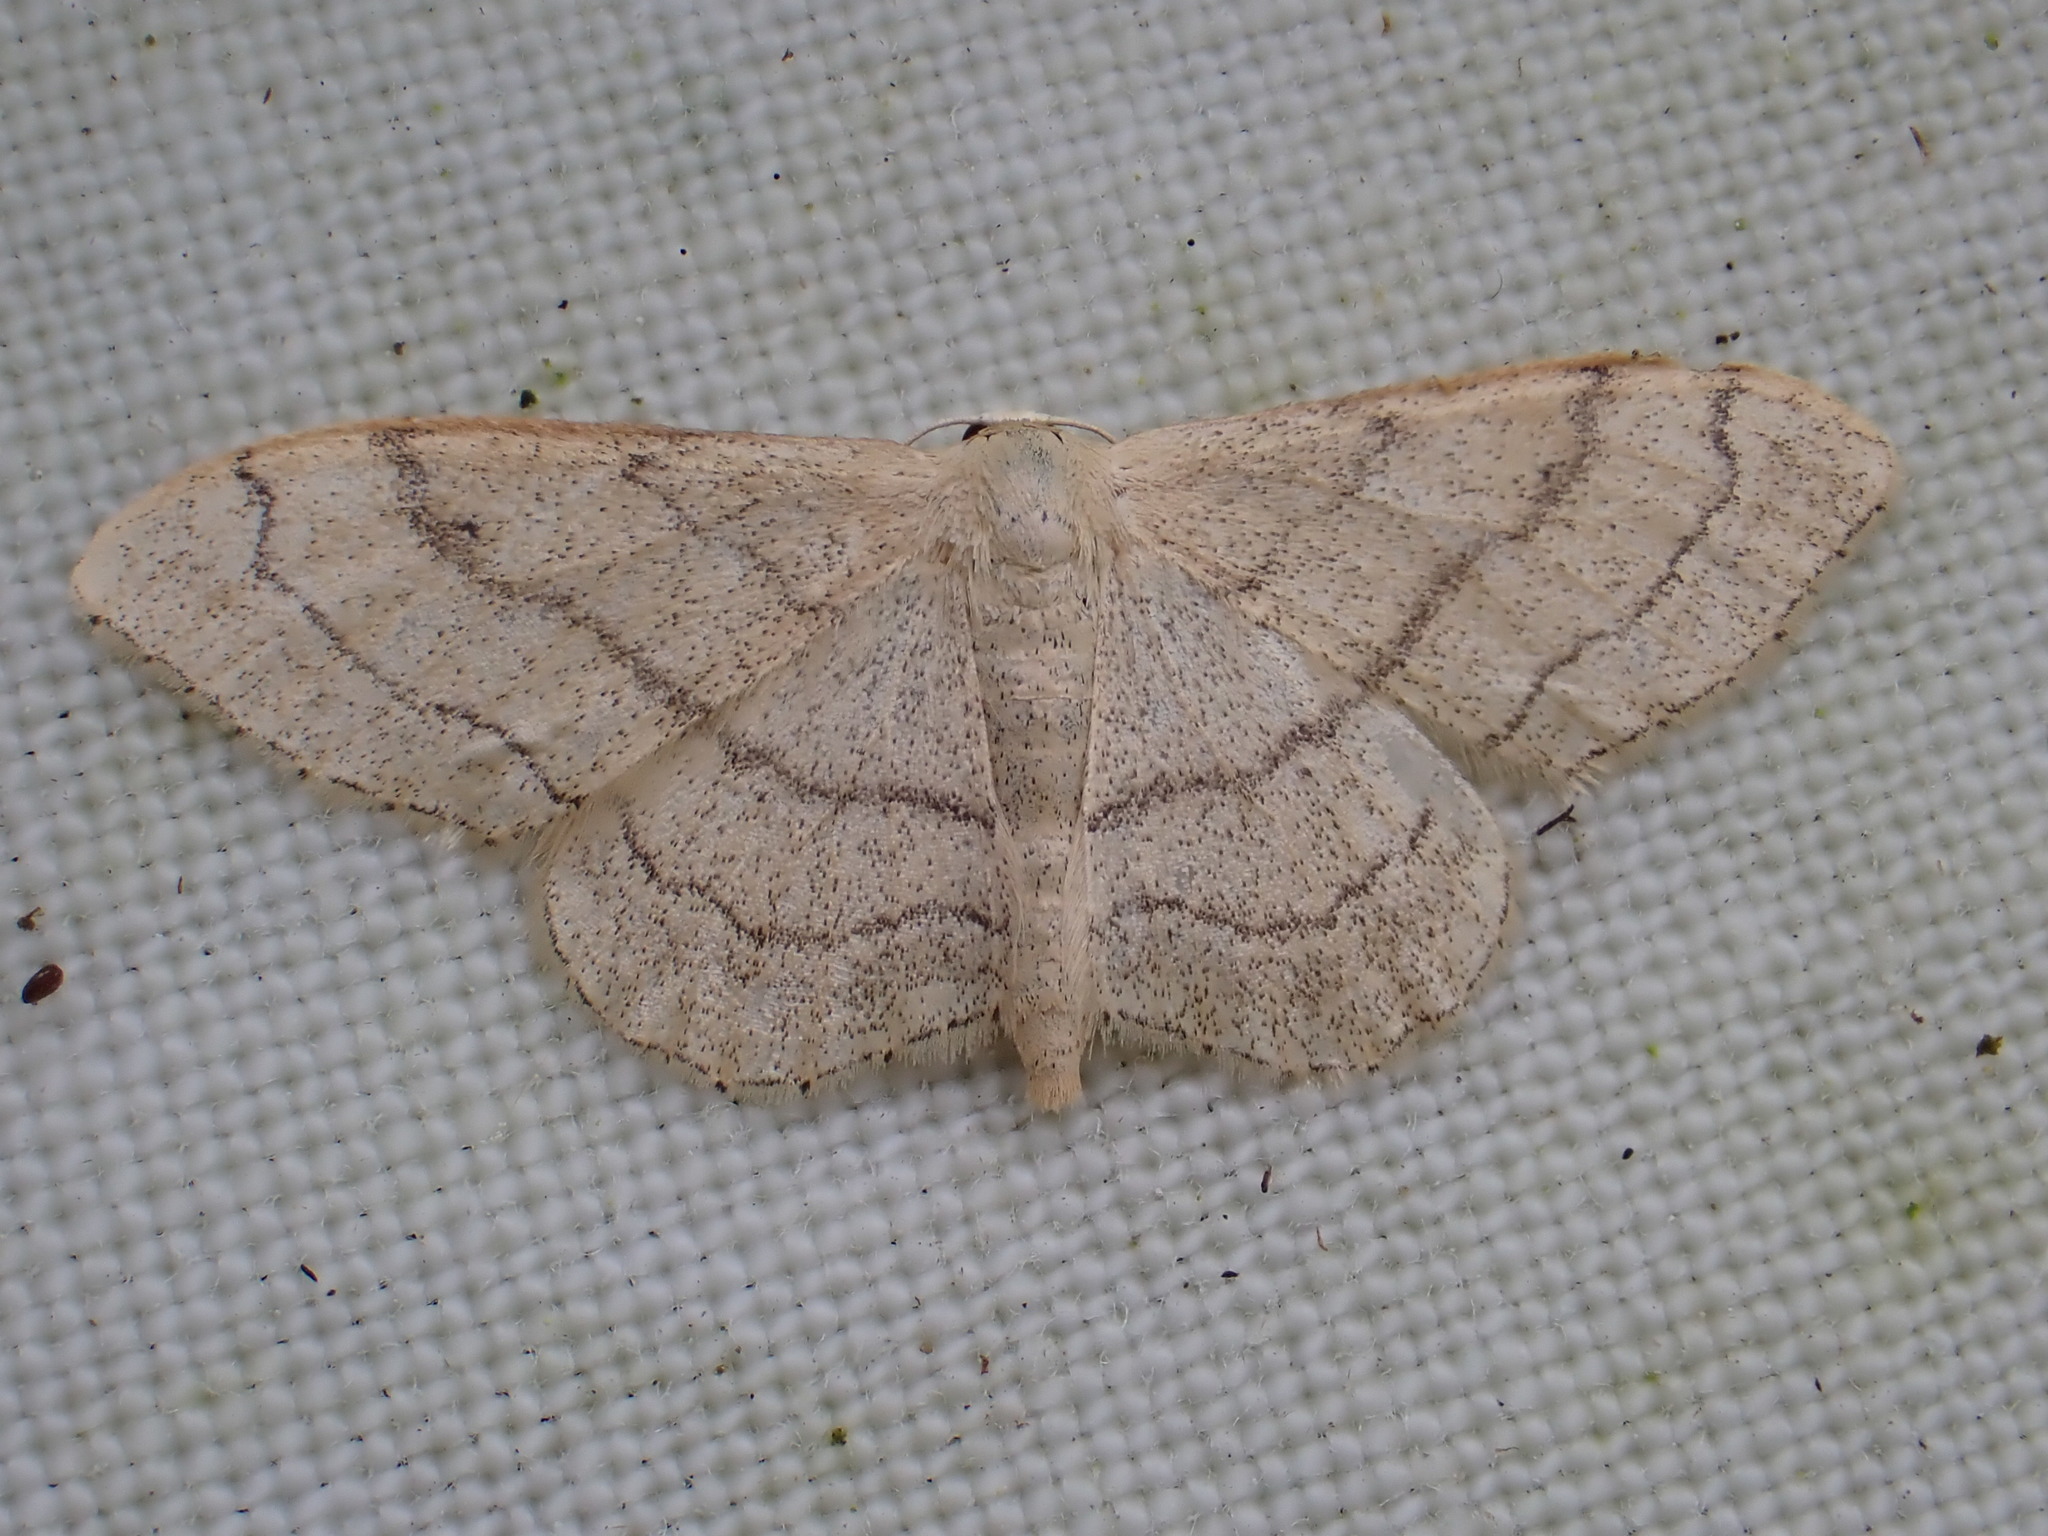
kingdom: Animalia
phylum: Arthropoda
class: Insecta
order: Lepidoptera
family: Geometridae
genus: Idaea
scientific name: Idaea aversata
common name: Riband wave
